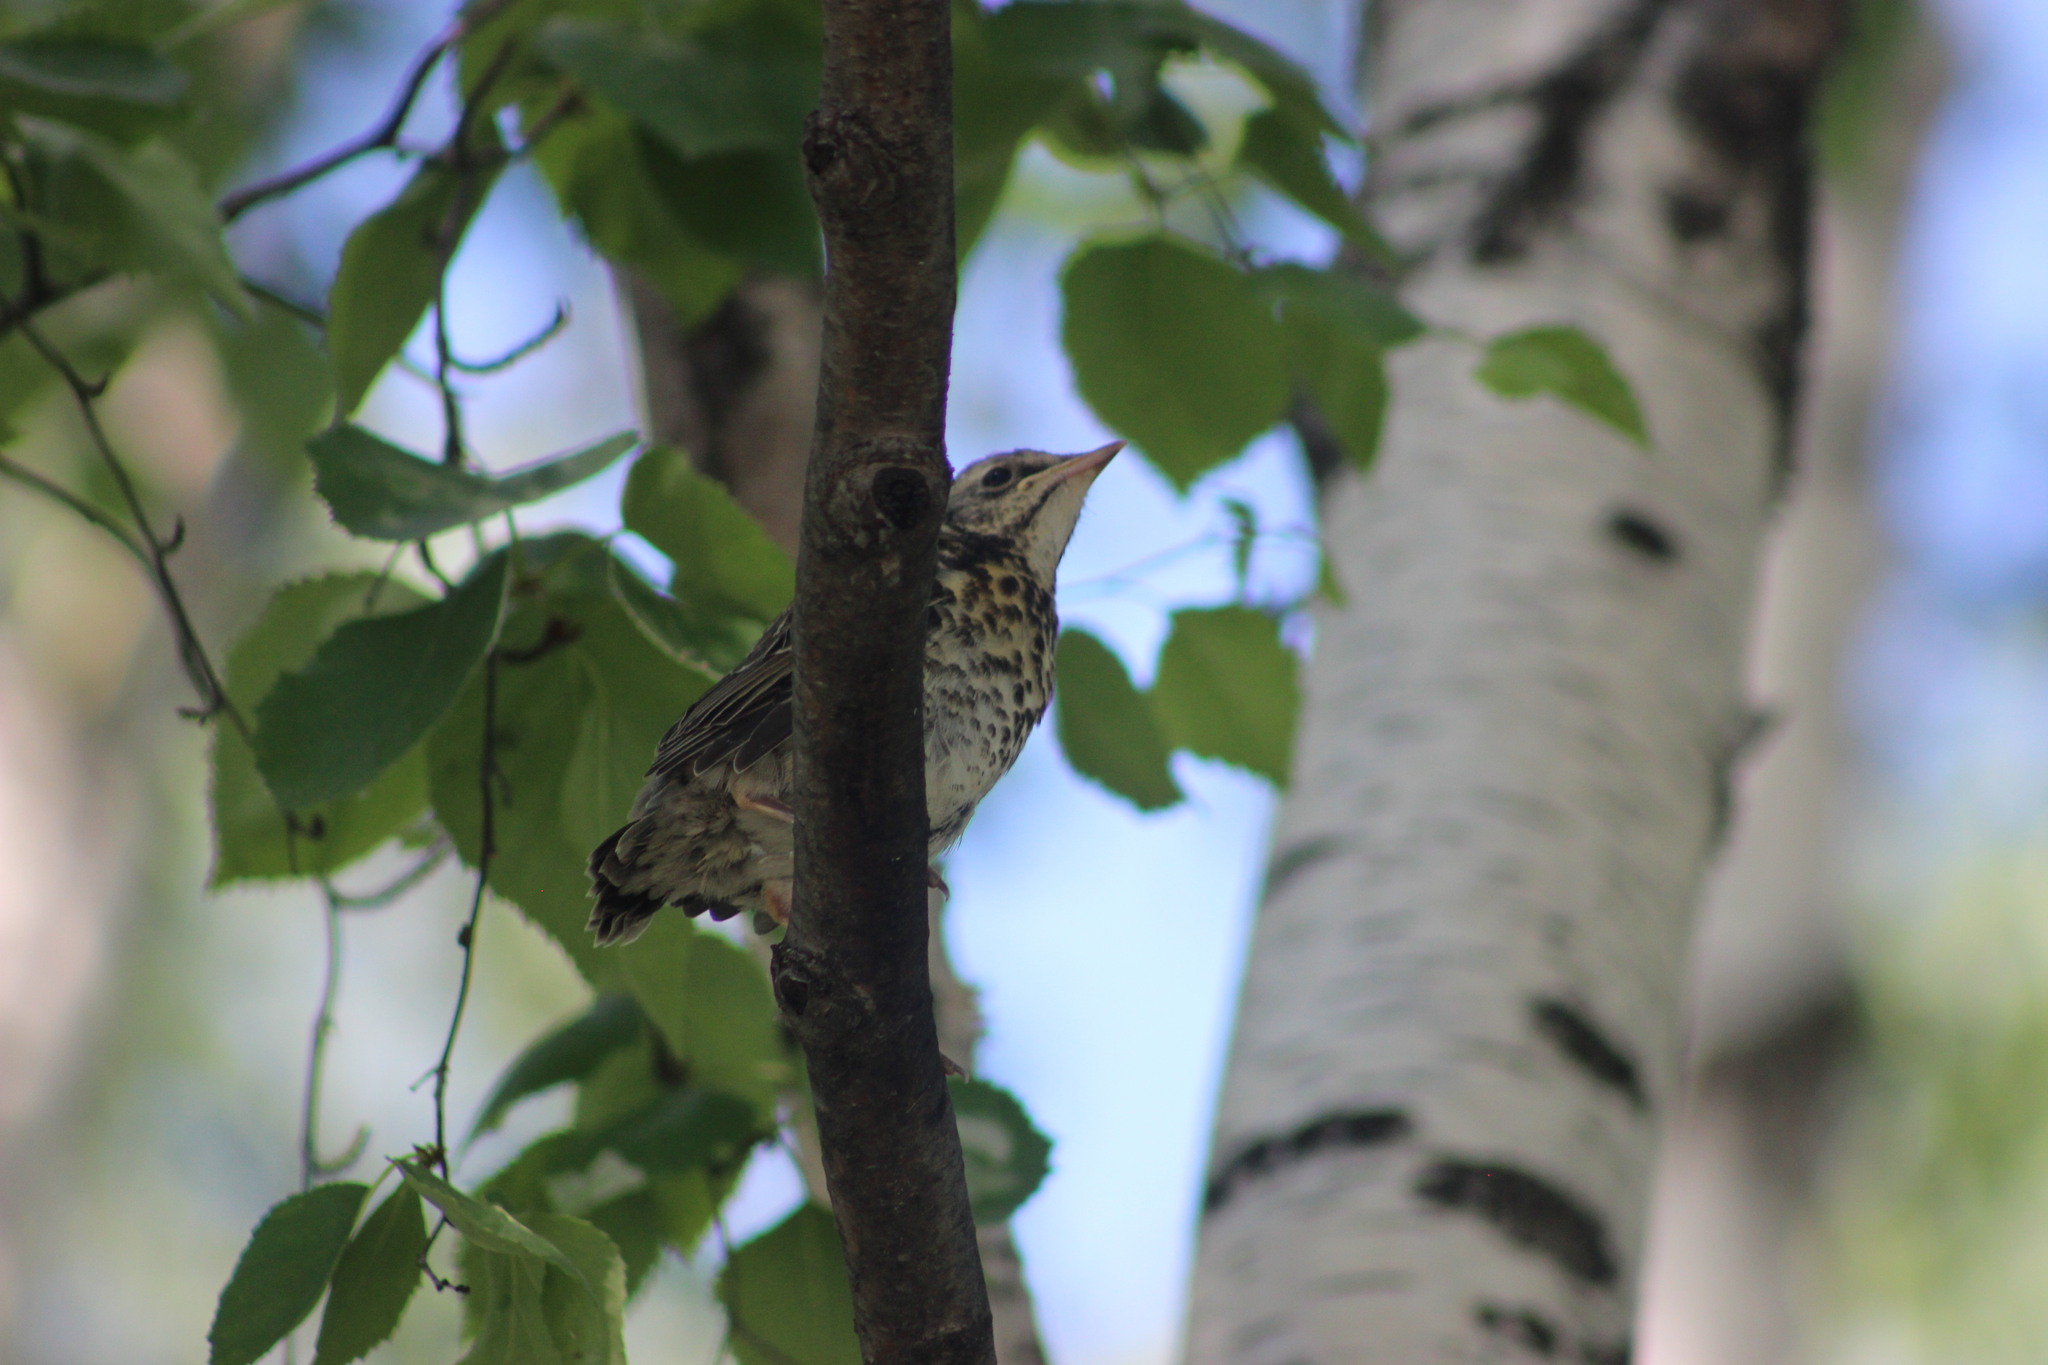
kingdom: Animalia
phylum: Chordata
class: Aves
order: Passeriformes
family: Turdidae
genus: Turdus
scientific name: Turdus pilaris
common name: Fieldfare
